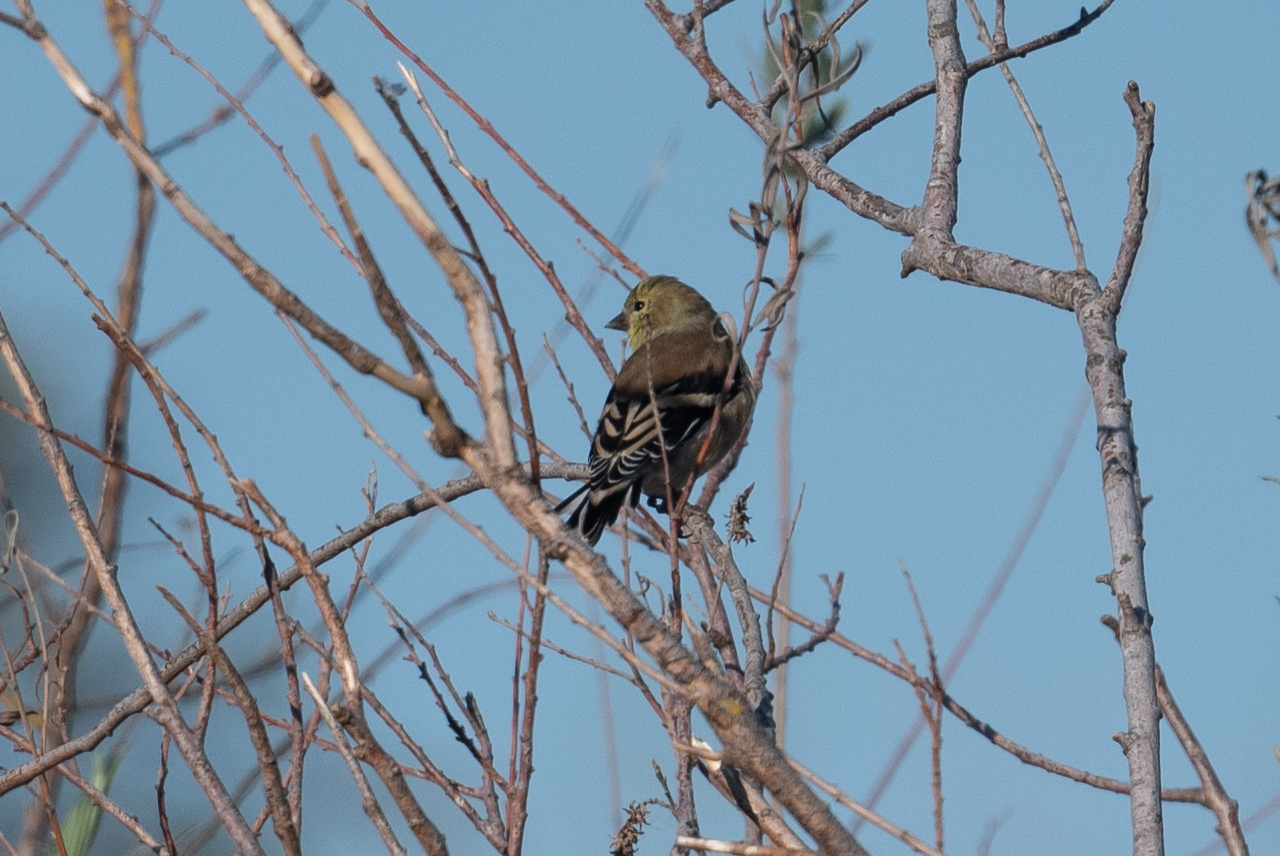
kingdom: Animalia
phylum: Chordata
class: Aves
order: Passeriformes
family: Fringillidae
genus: Spinus
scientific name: Spinus tristis
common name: American goldfinch
